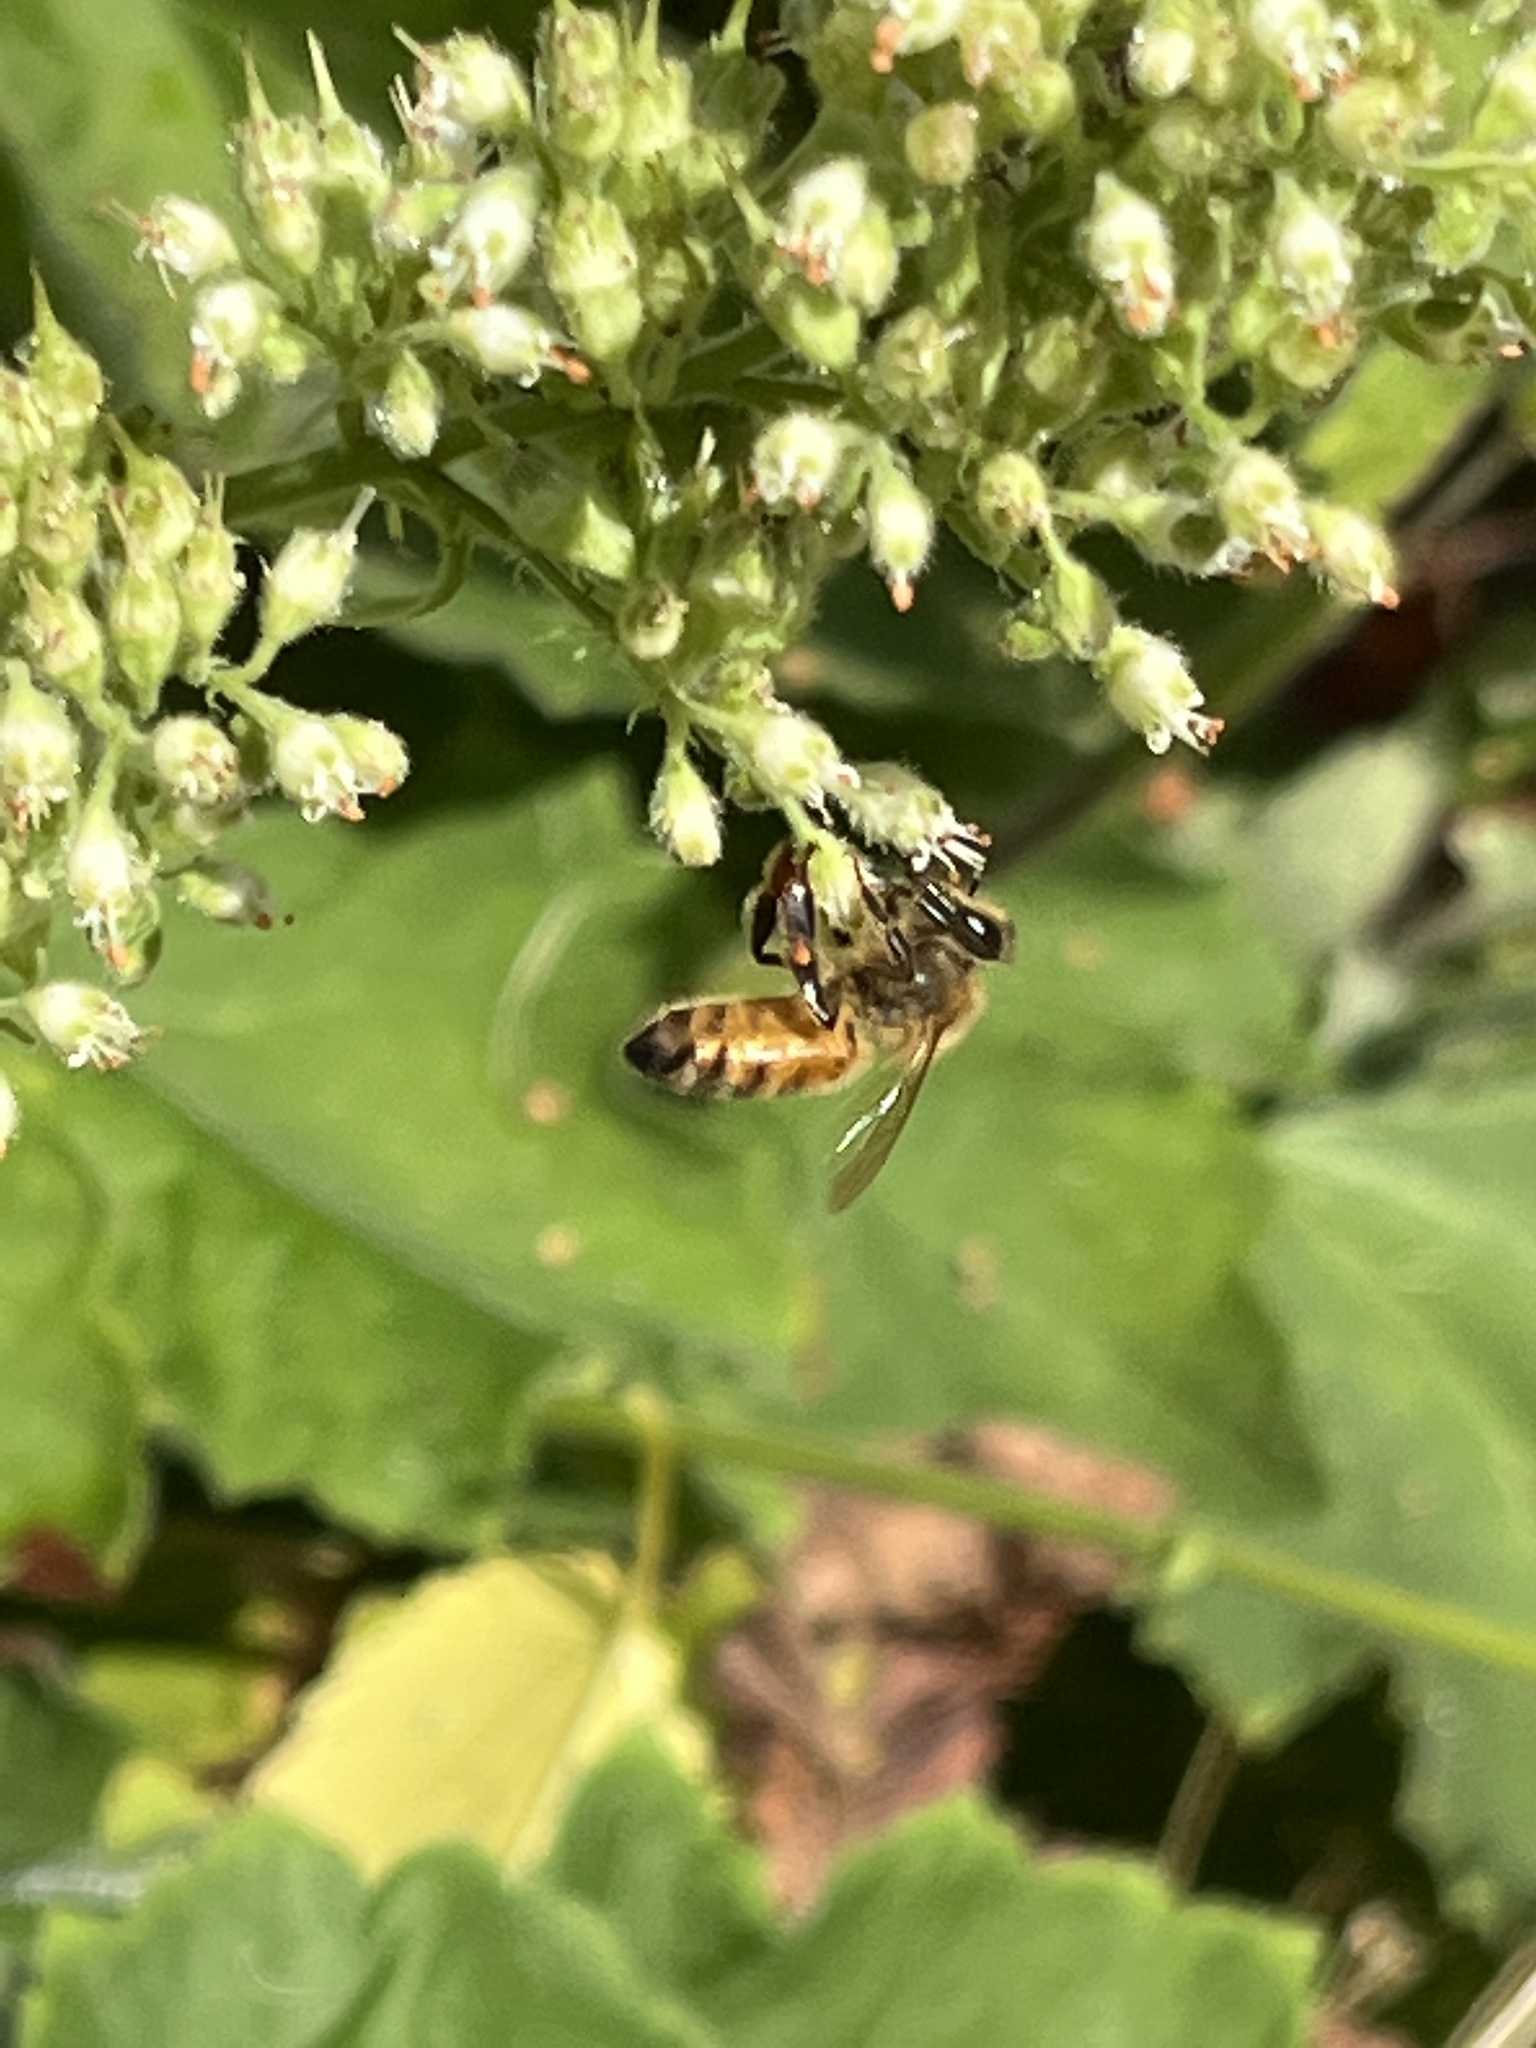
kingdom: Animalia
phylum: Arthropoda
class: Insecta
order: Hymenoptera
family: Apidae
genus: Apis
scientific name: Apis mellifera
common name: Honey bee
